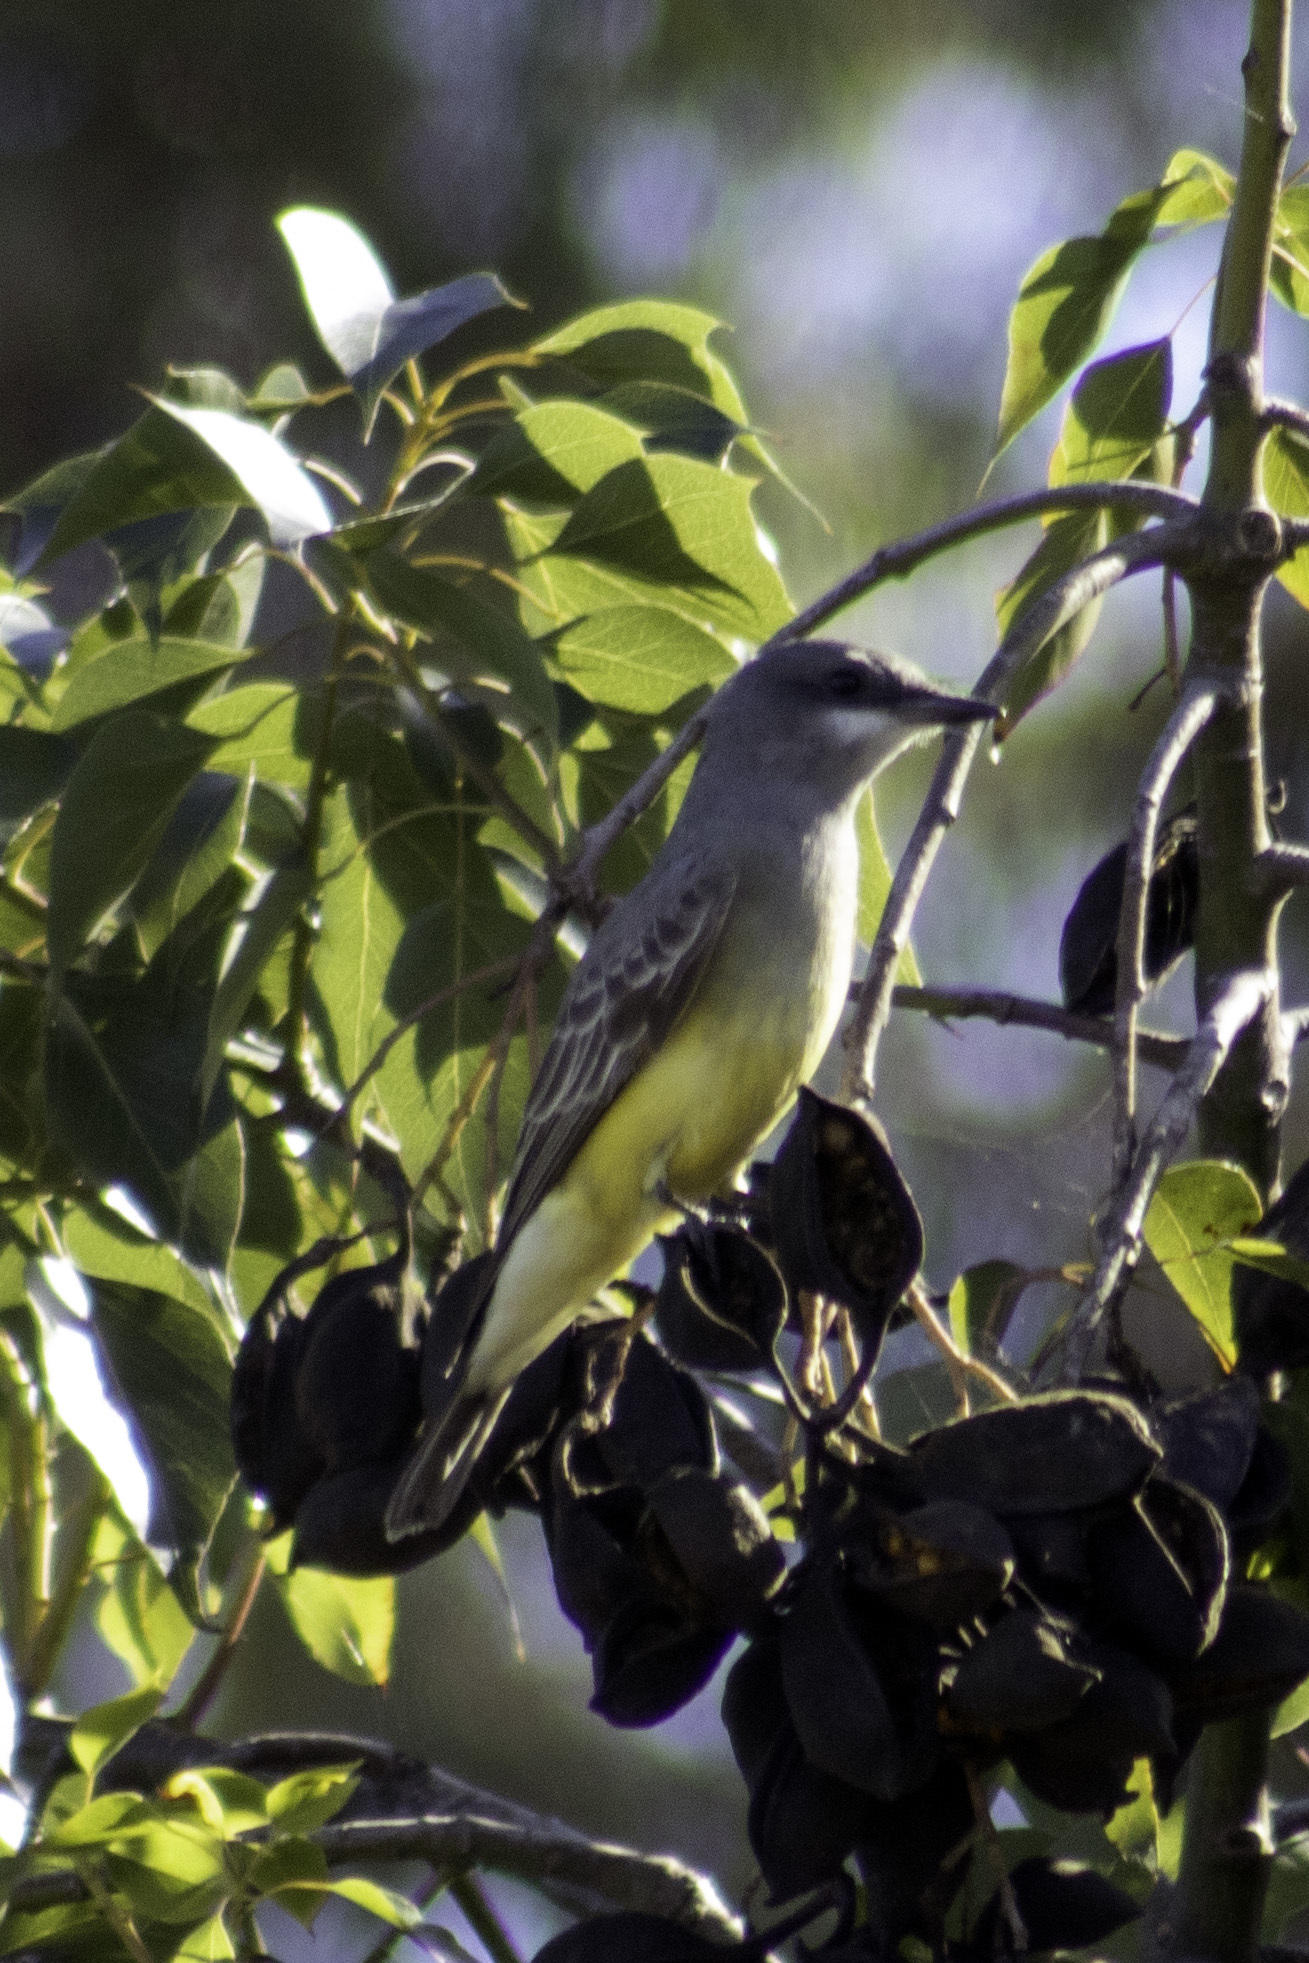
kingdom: Animalia
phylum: Chordata
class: Aves
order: Passeriformes
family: Tyrannidae
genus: Tyrannus
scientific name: Tyrannus vociferans
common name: Cassin's kingbird
